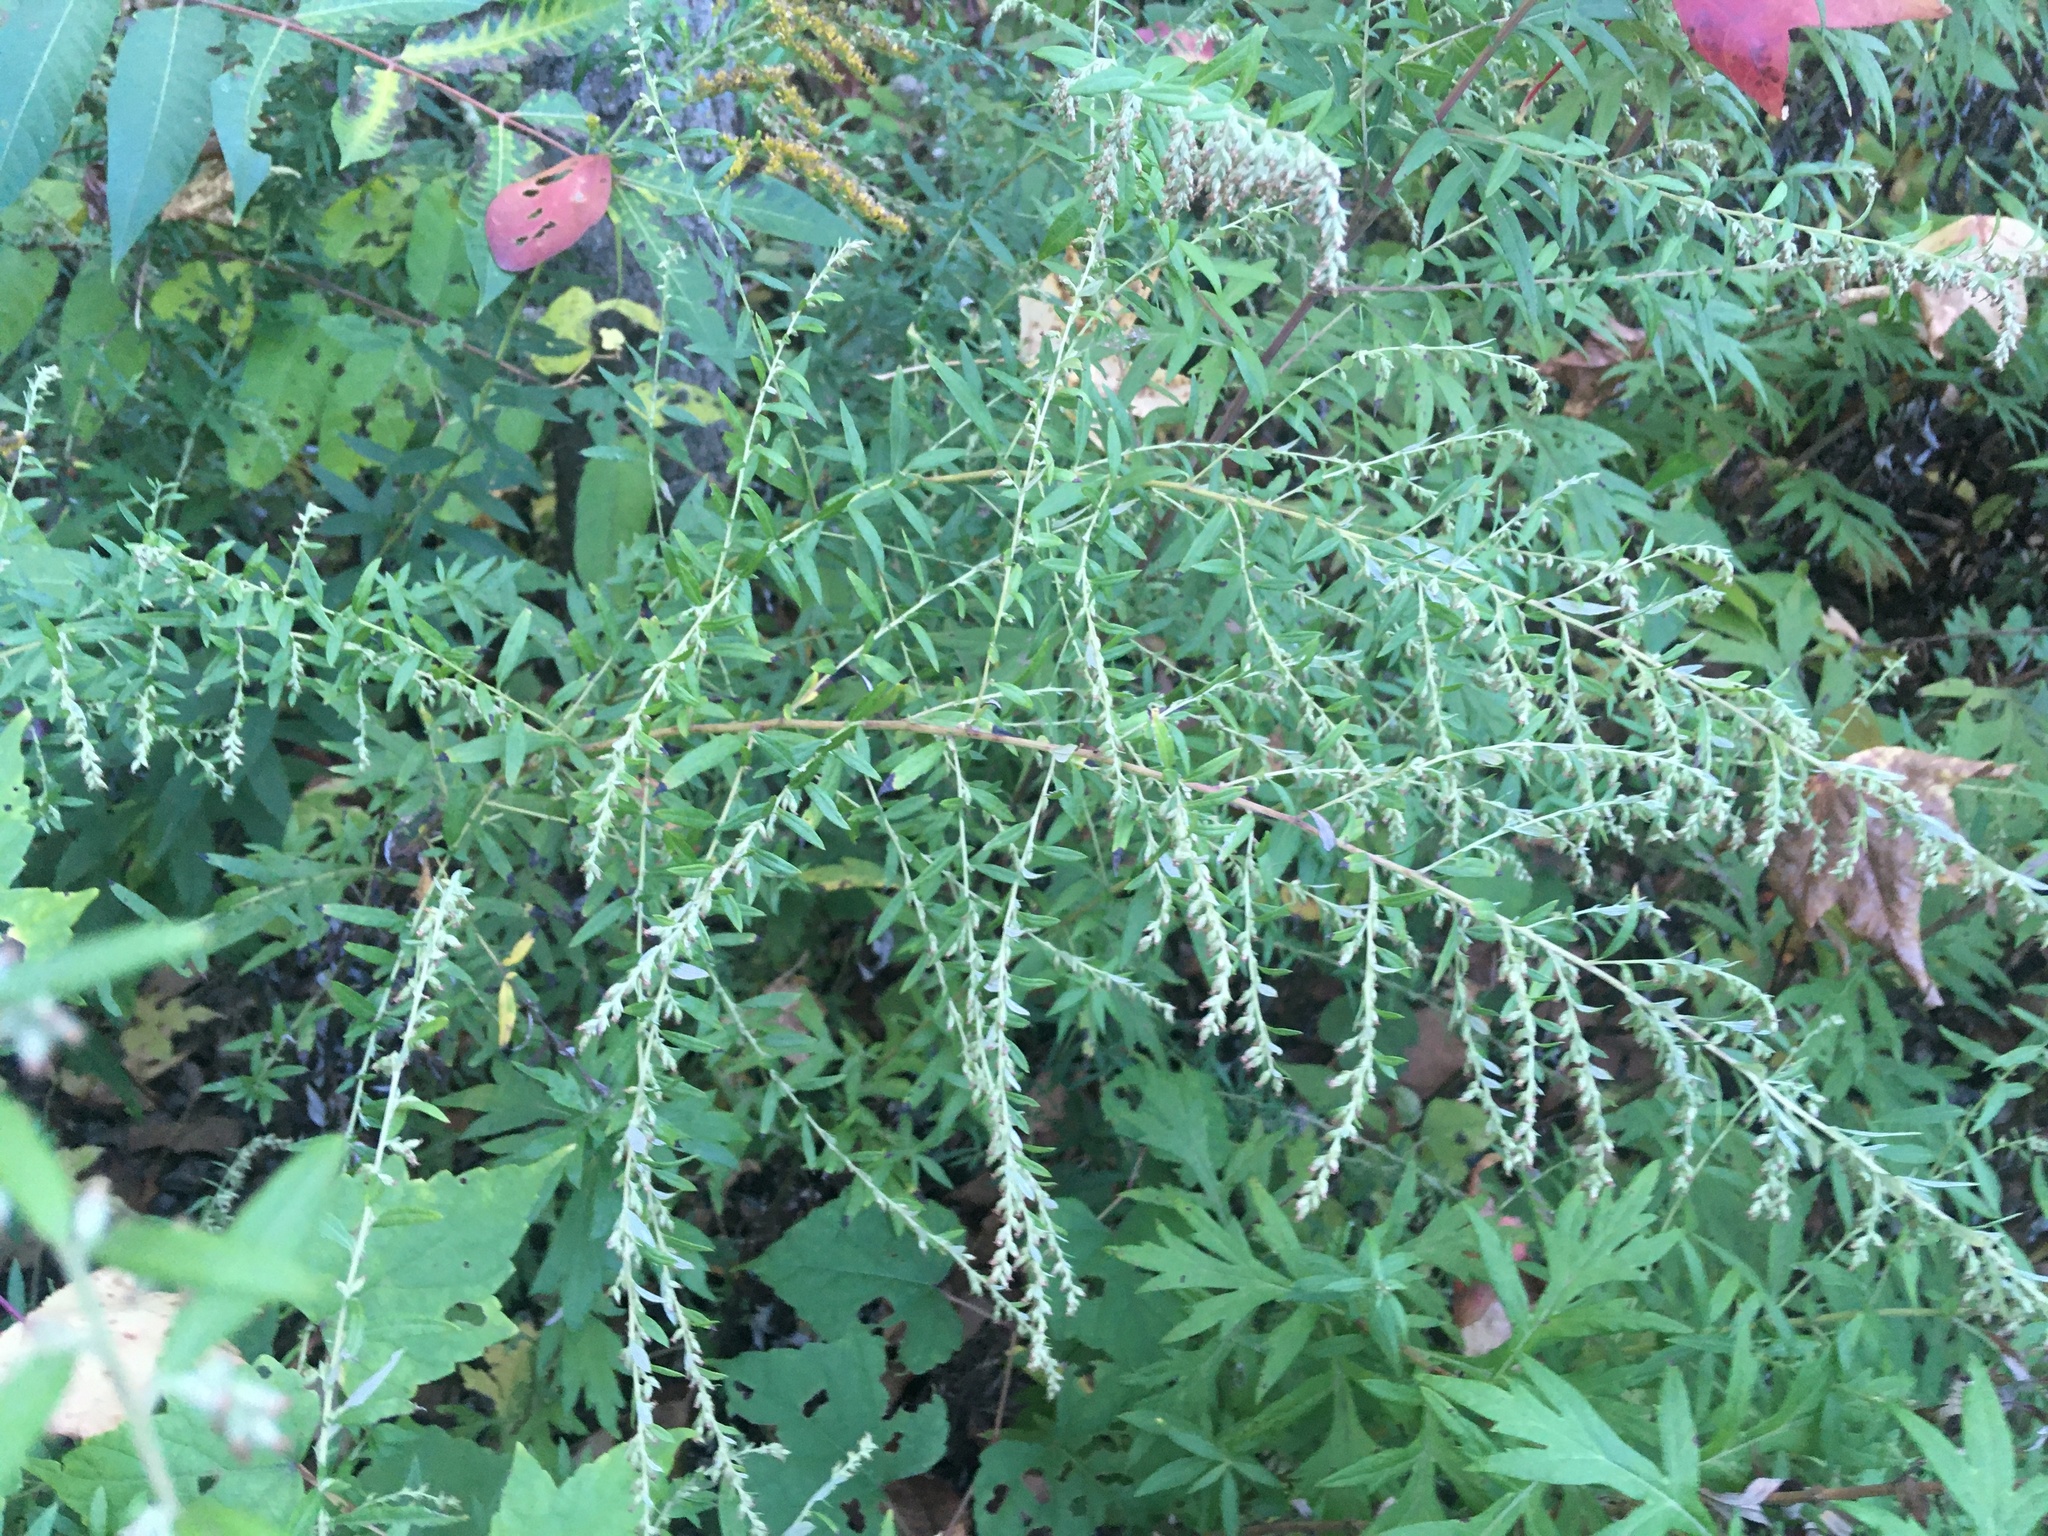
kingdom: Plantae
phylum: Tracheophyta
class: Magnoliopsida
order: Asterales
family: Asteraceae
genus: Artemisia
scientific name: Artemisia vulgaris
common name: Mugwort
